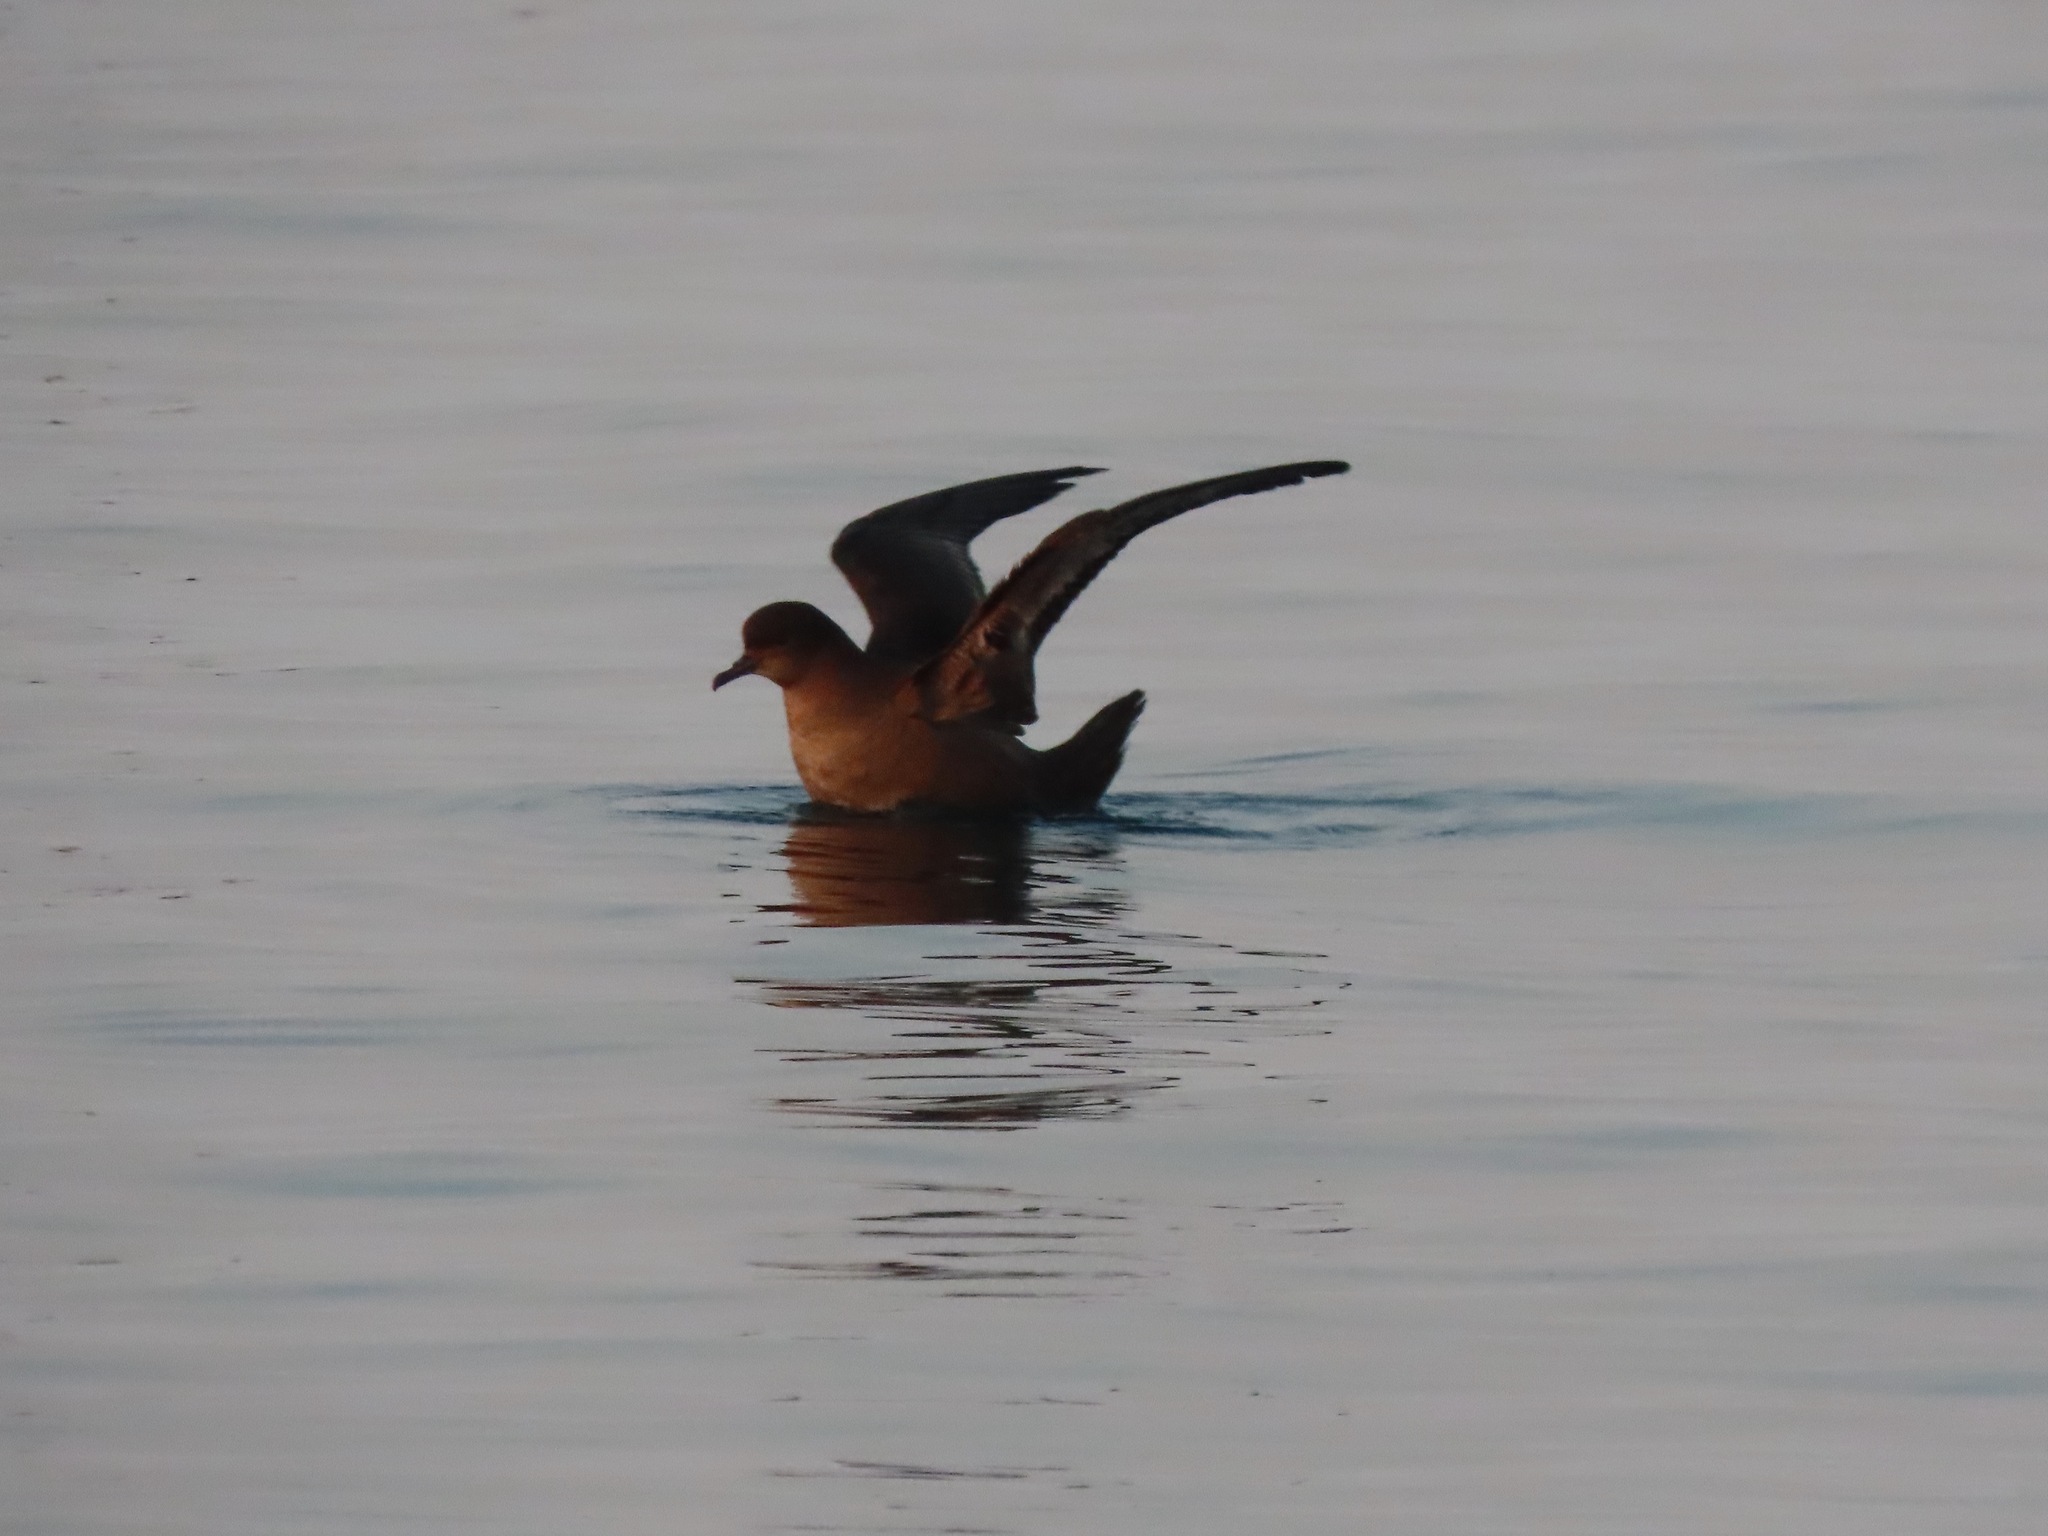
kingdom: Animalia
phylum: Chordata
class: Aves
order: Procellariiformes
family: Procellariidae
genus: Puffinus
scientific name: Puffinus tenuirostris
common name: Short-tailed shearwater
